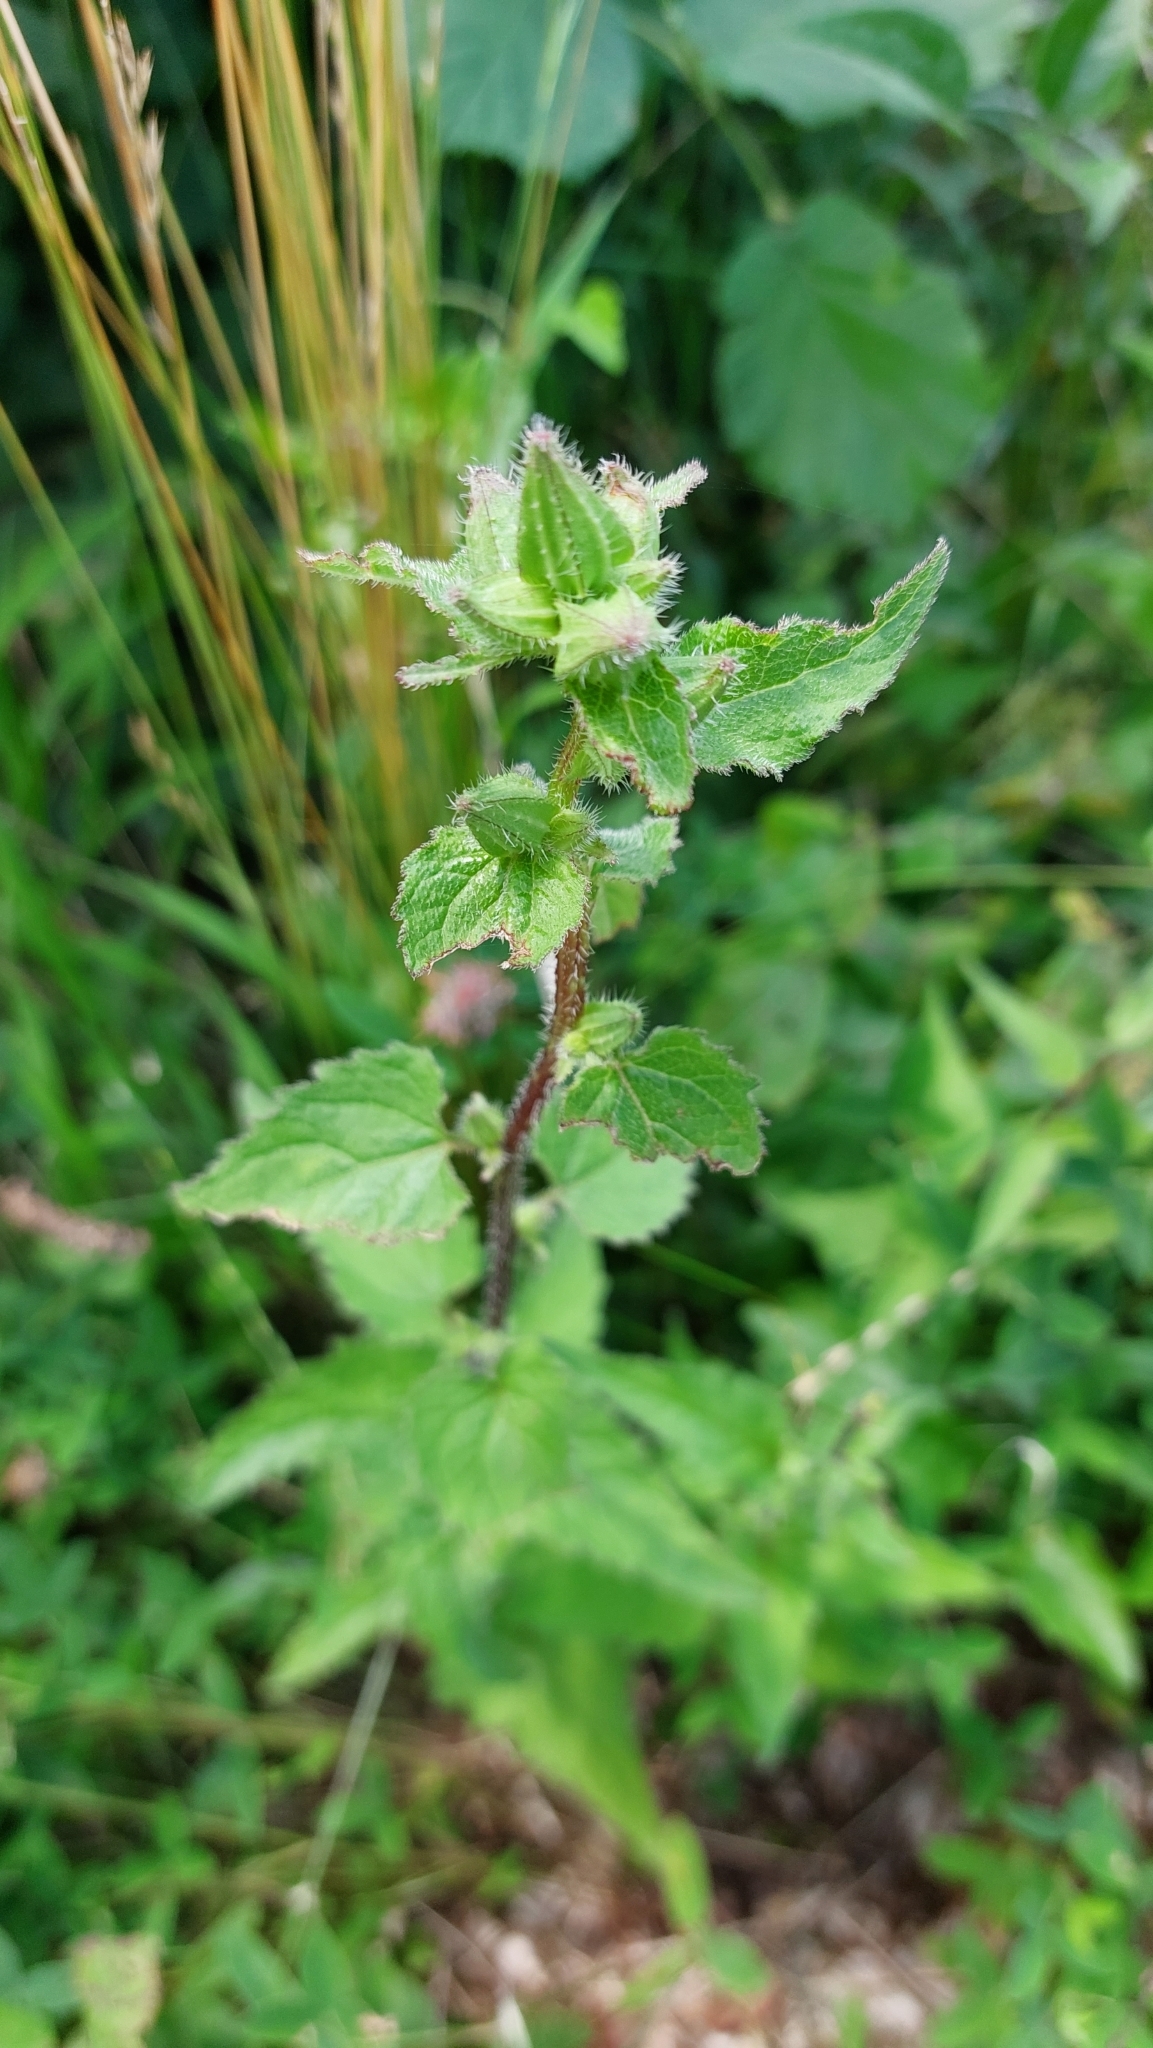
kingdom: Plantae
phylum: Tracheophyta
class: Magnoliopsida
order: Asterales
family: Campanulaceae
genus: Campanula
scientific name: Campanula trachelium
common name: Nettle-leaved bellflower
